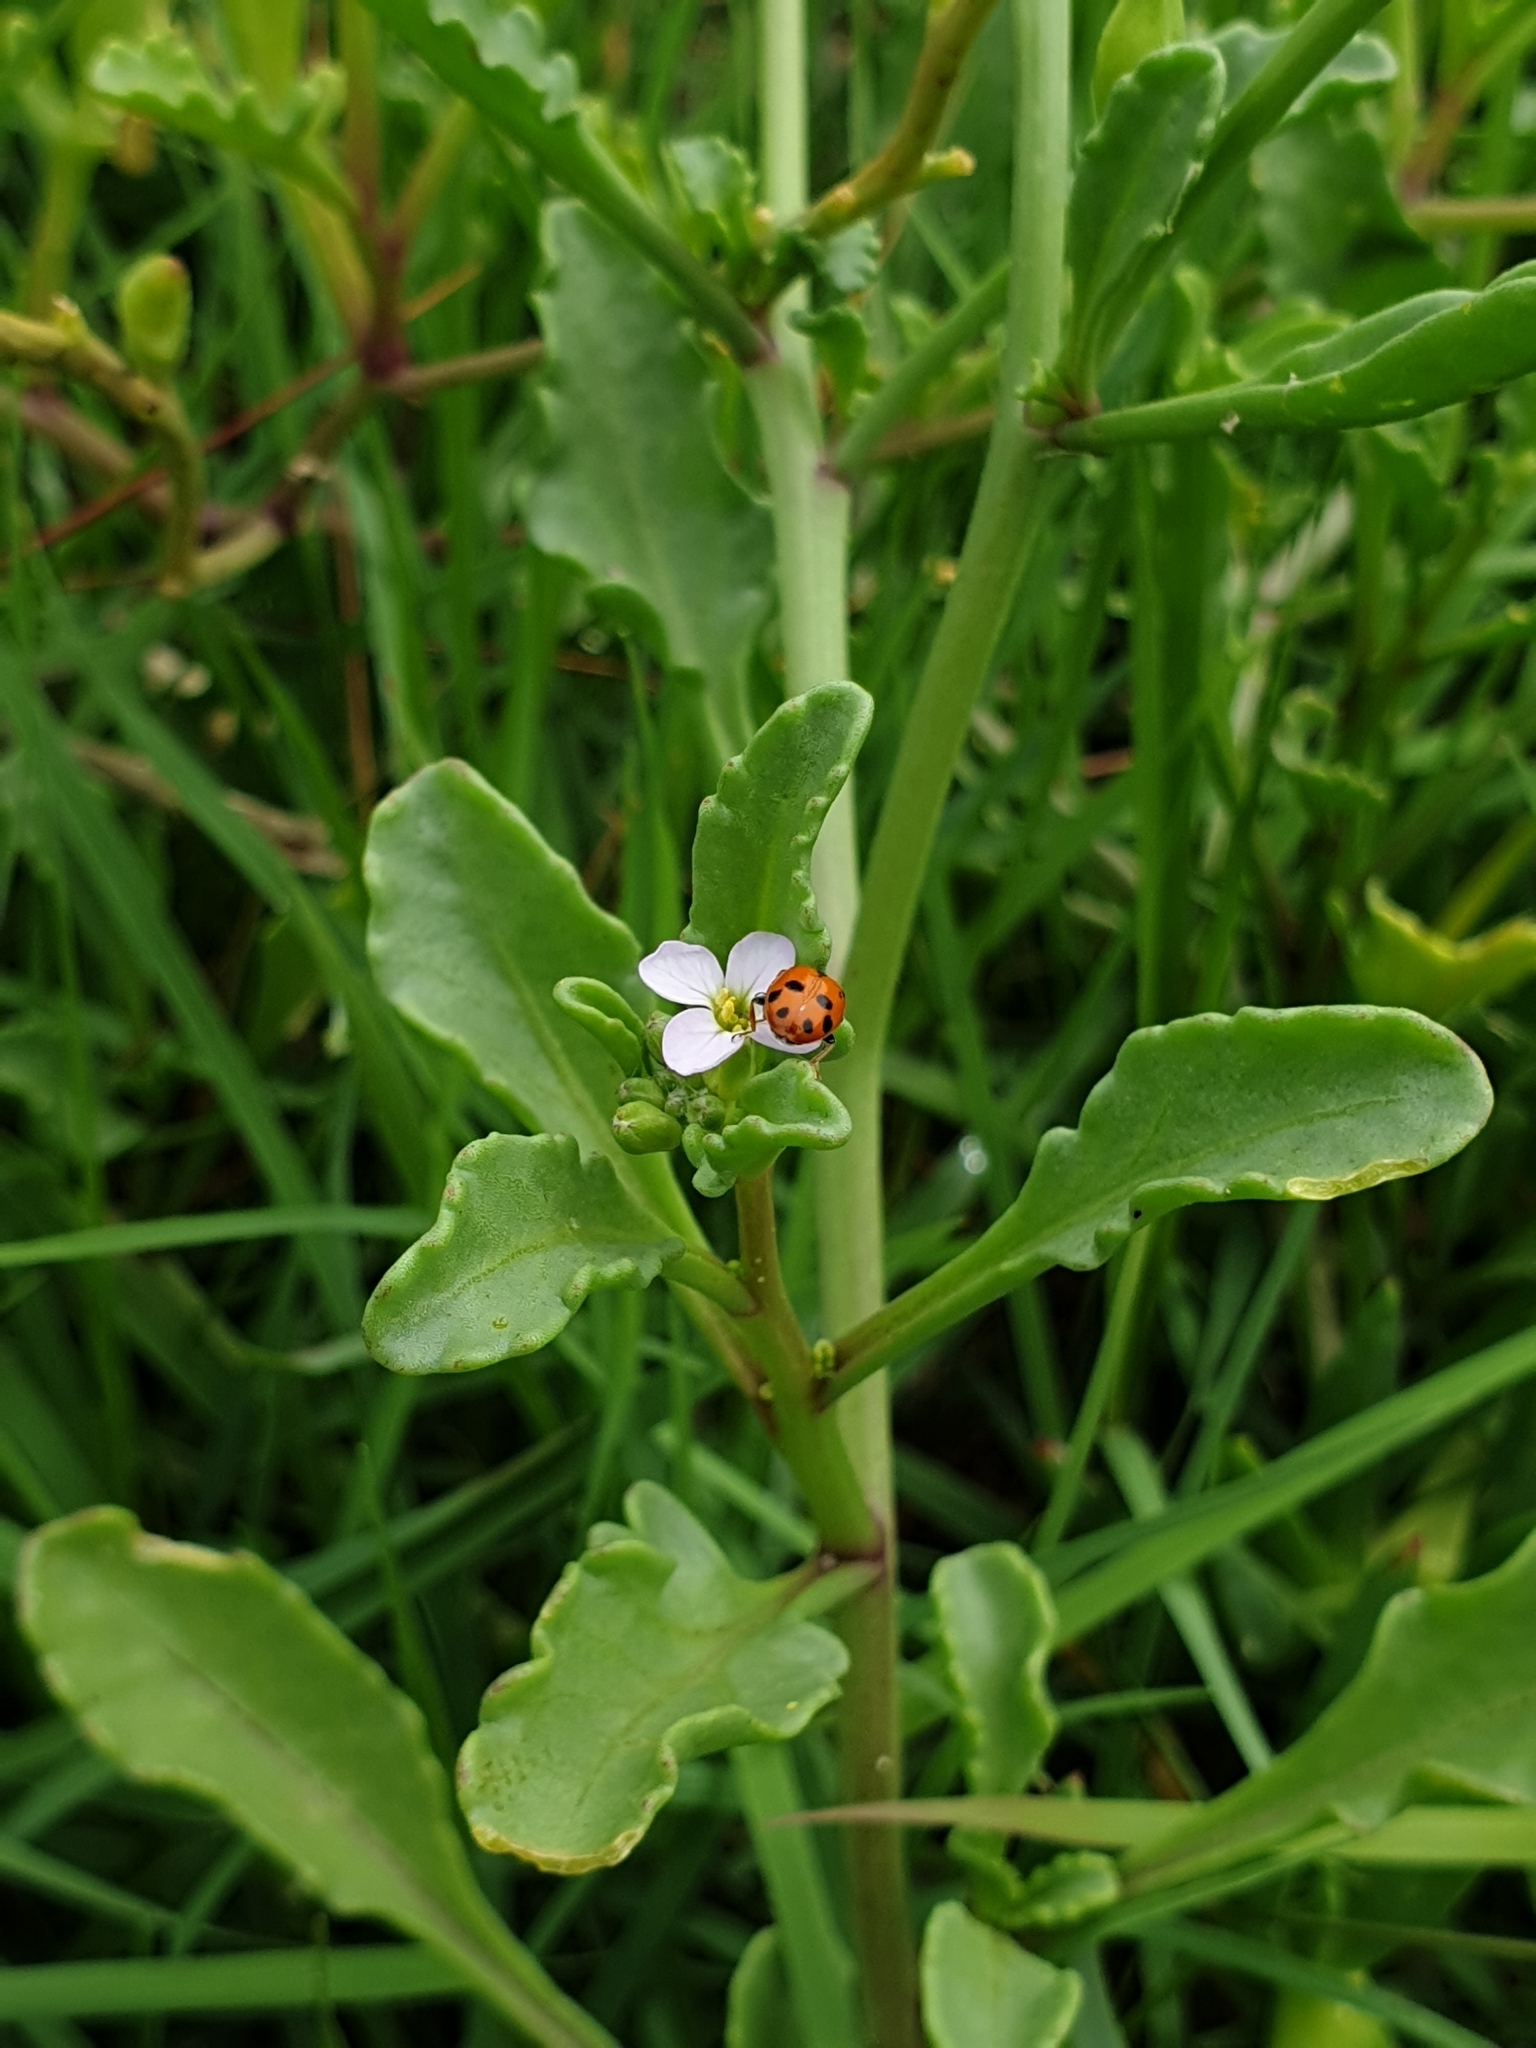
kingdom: Animalia
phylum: Arthropoda
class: Insecta
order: Coleoptera
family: Coccinellidae
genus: Hippodamia
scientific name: Hippodamia variegata
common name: Ladybird beetle
